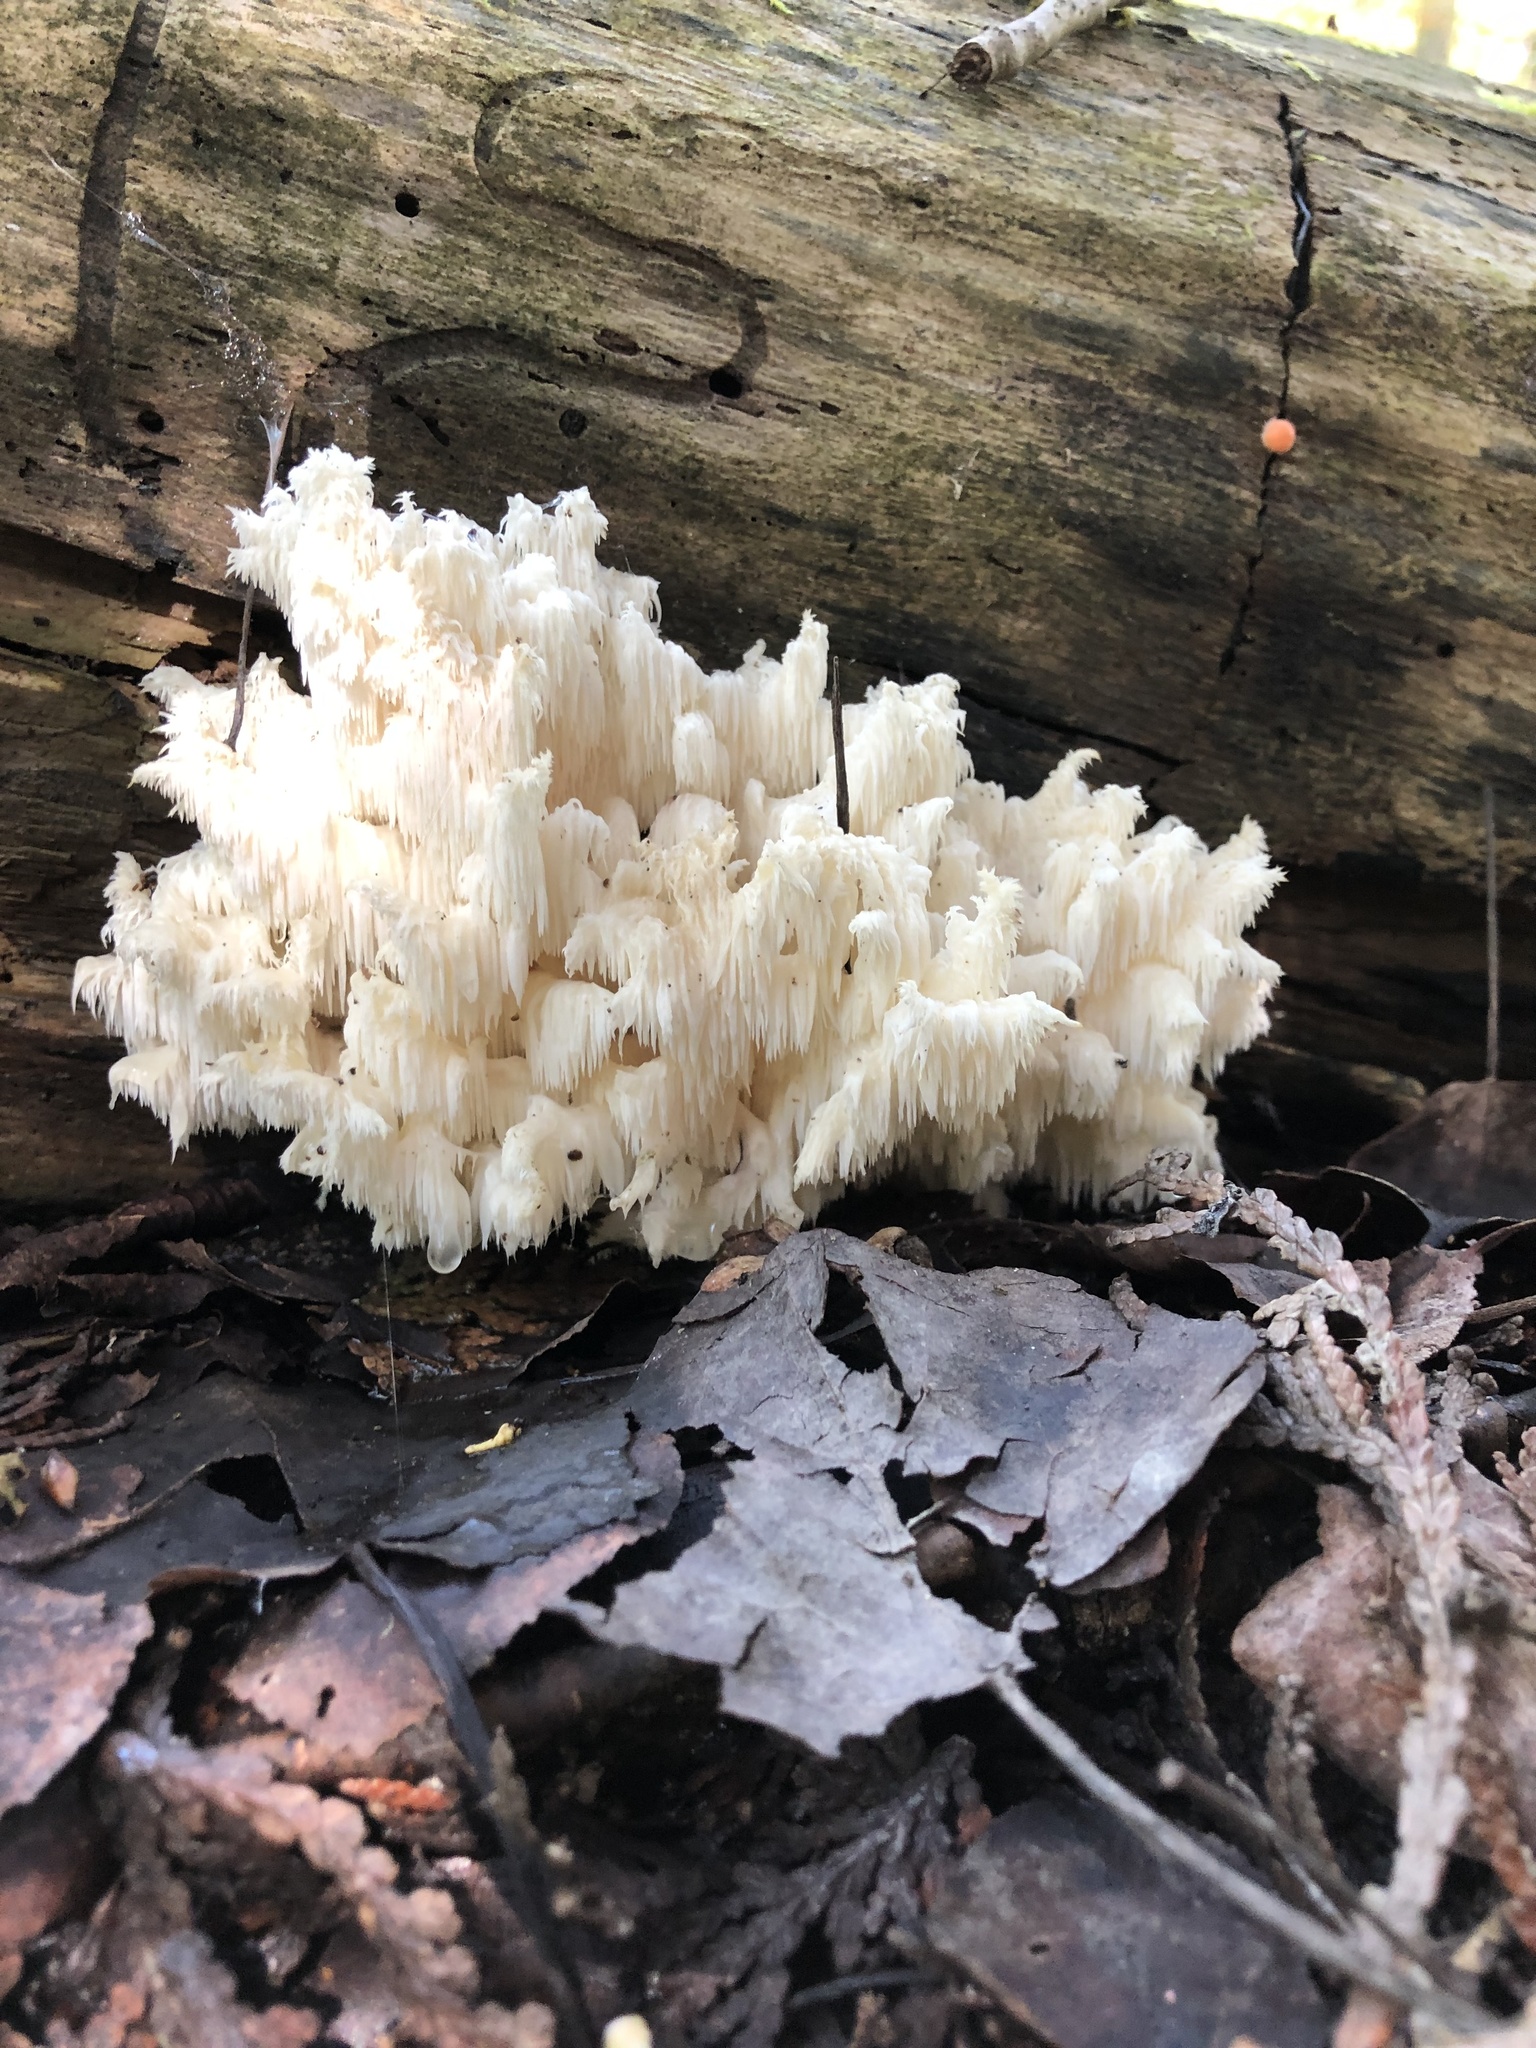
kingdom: Fungi
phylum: Basidiomycota
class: Agaricomycetes
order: Russulales
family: Hericiaceae
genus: Hericium
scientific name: Hericium coralloides
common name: Coral tooth
